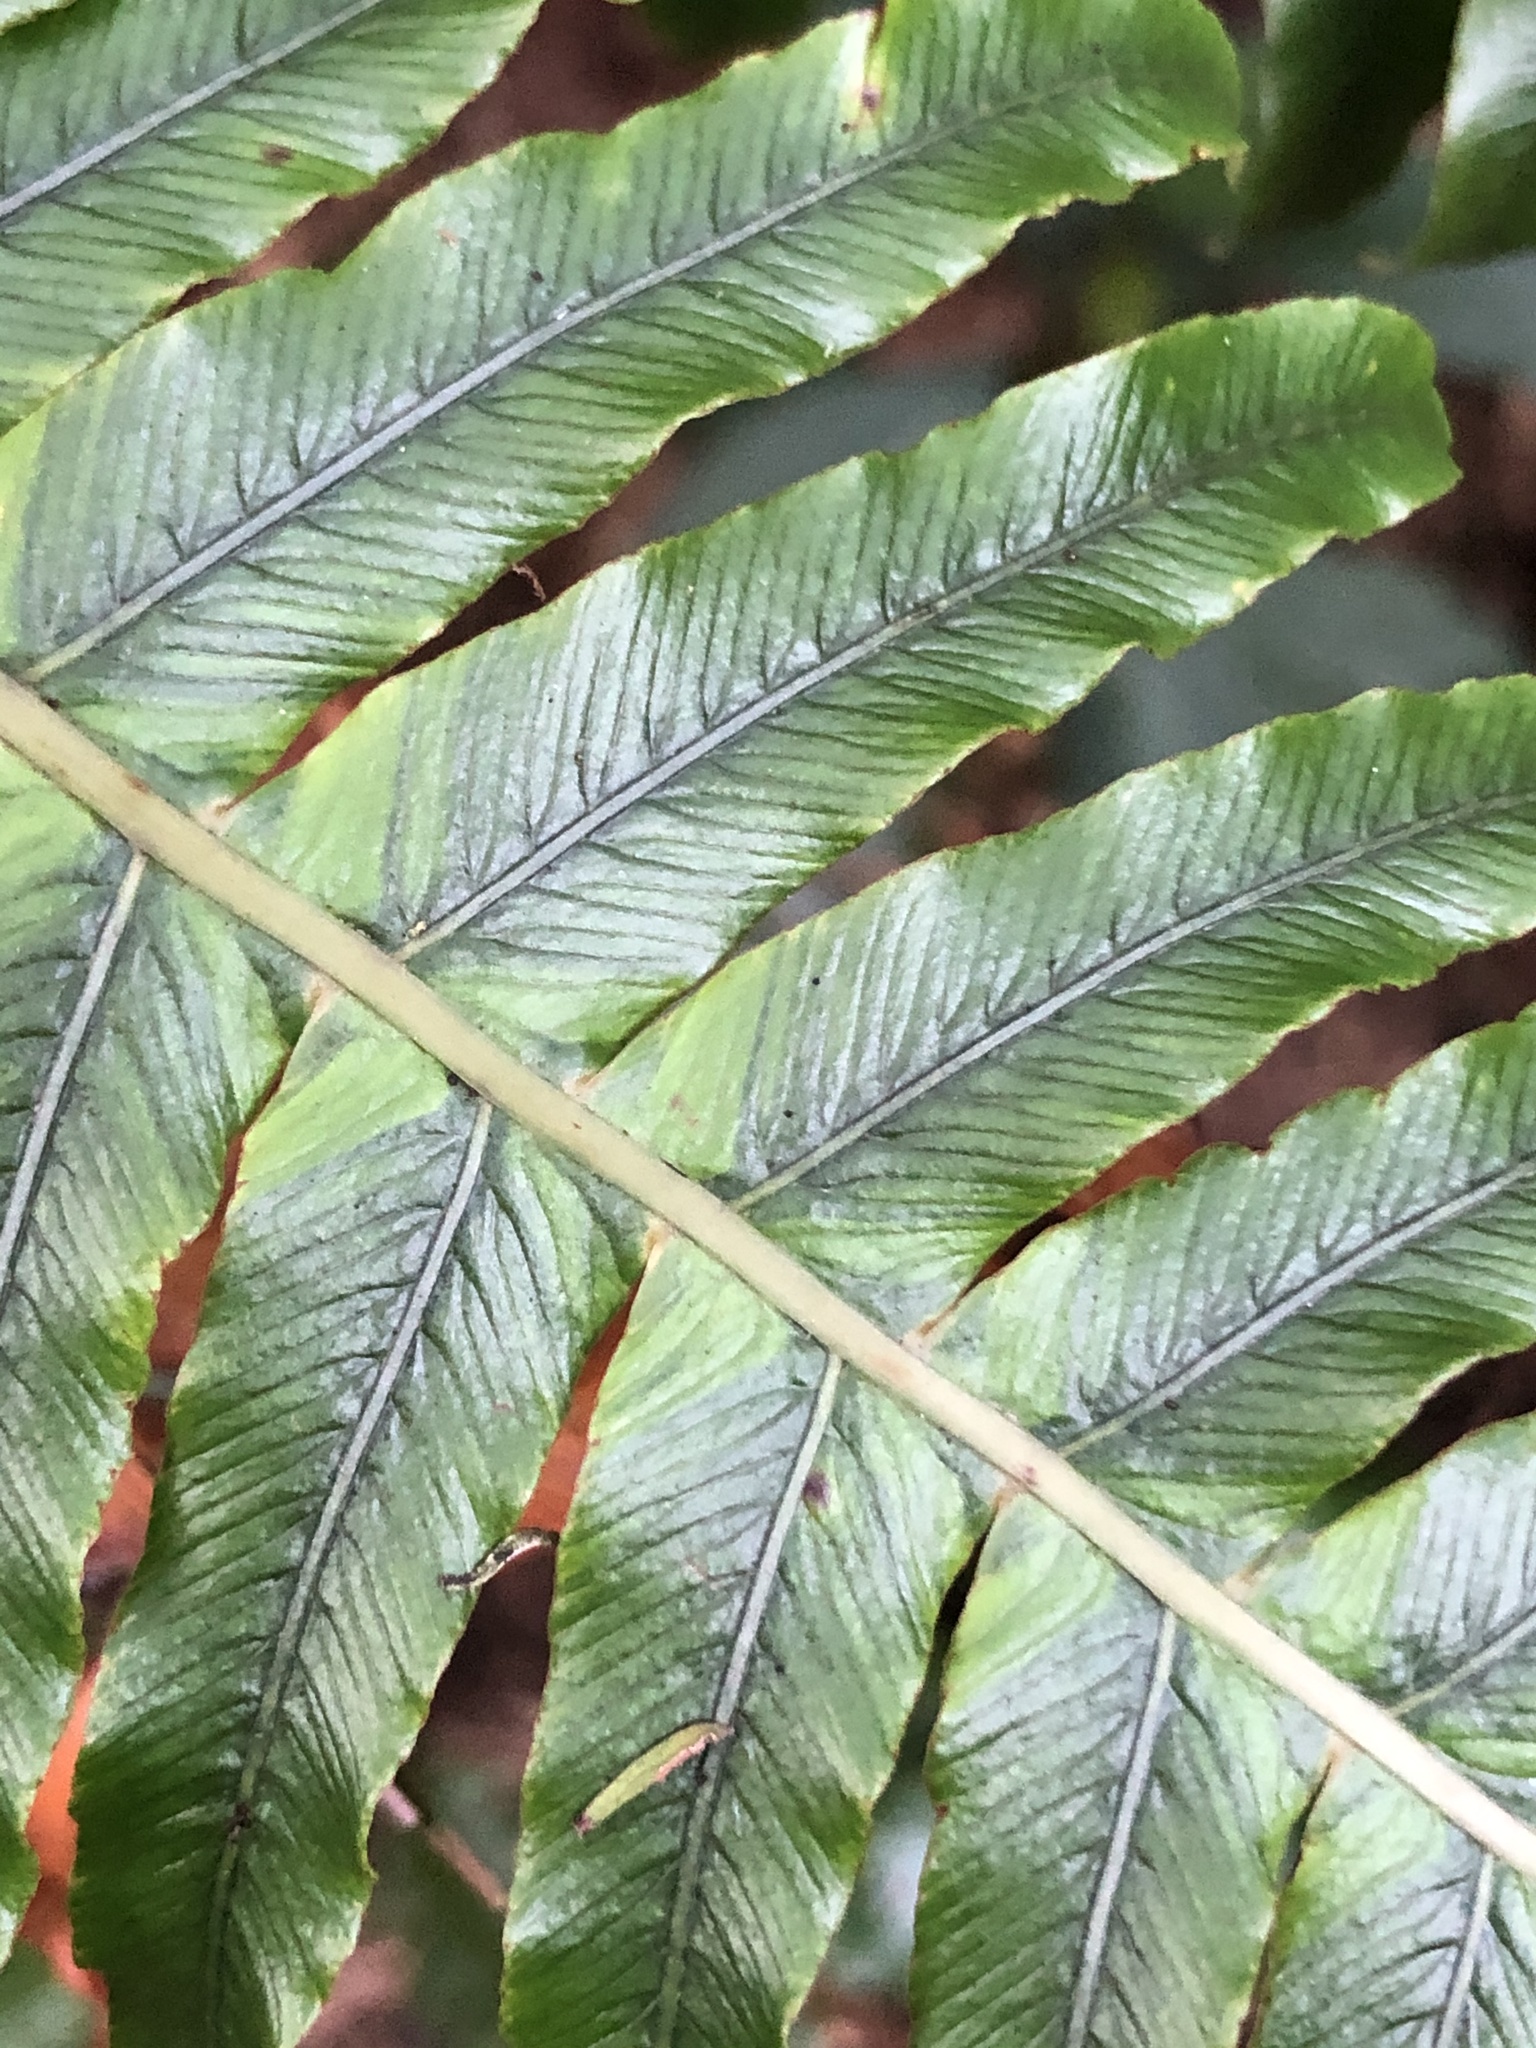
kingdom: Plantae
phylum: Tracheophyta
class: Polypodiopsida
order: Polypodiales
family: Blechnaceae
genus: Lomaria
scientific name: Lomaria discolor
